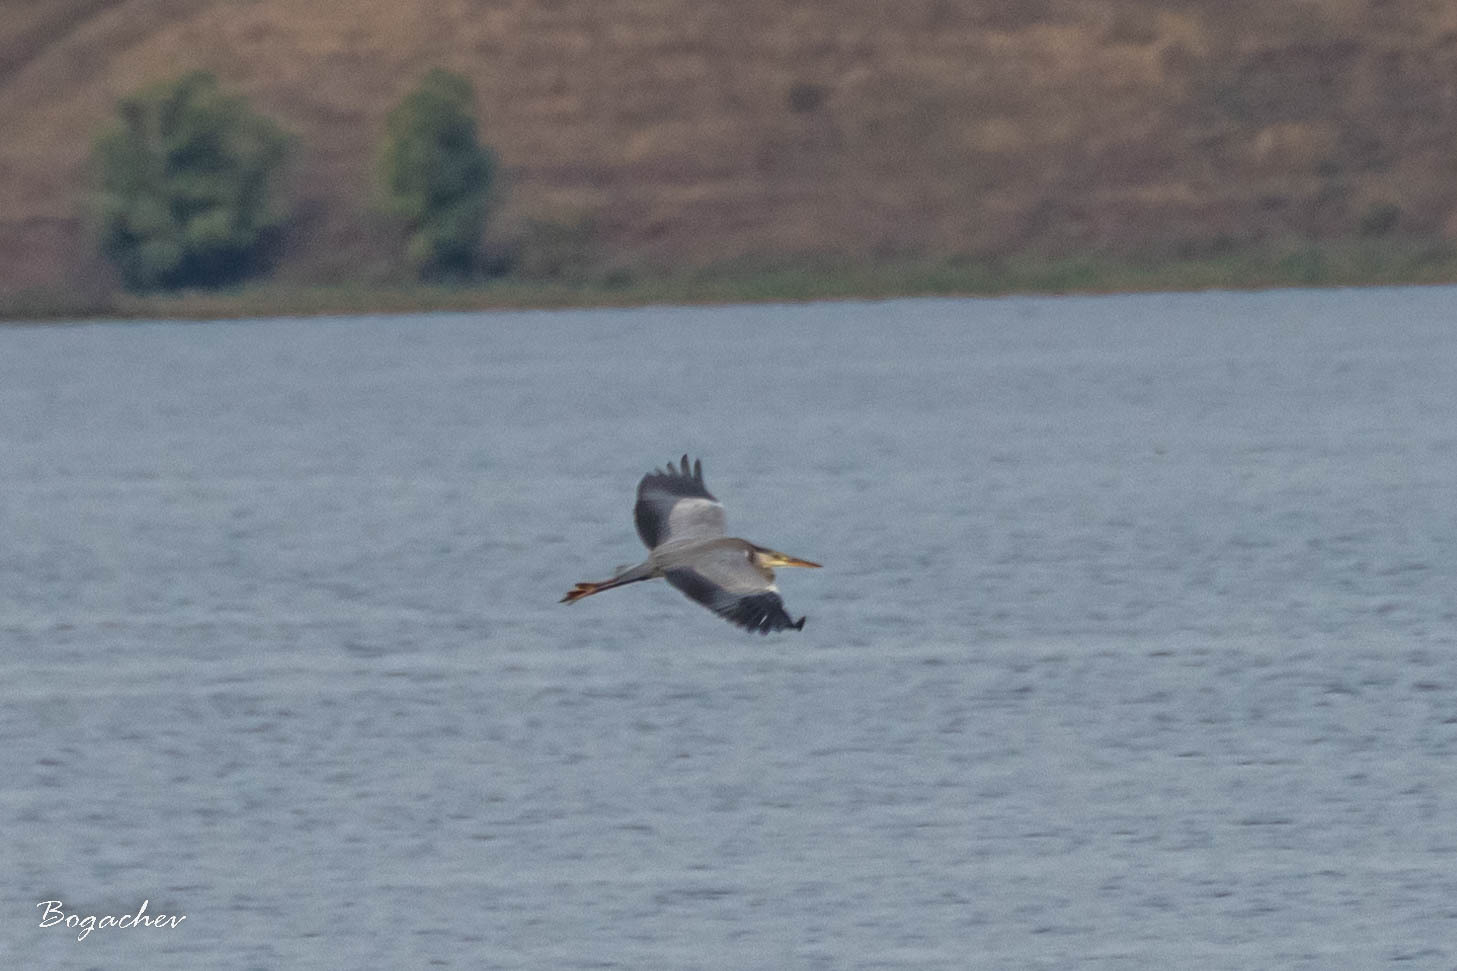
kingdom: Animalia
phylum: Chordata
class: Aves
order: Pelecaniformes
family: Ardeidae
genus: Ardea
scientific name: Ardea cinerea
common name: Grey heron
